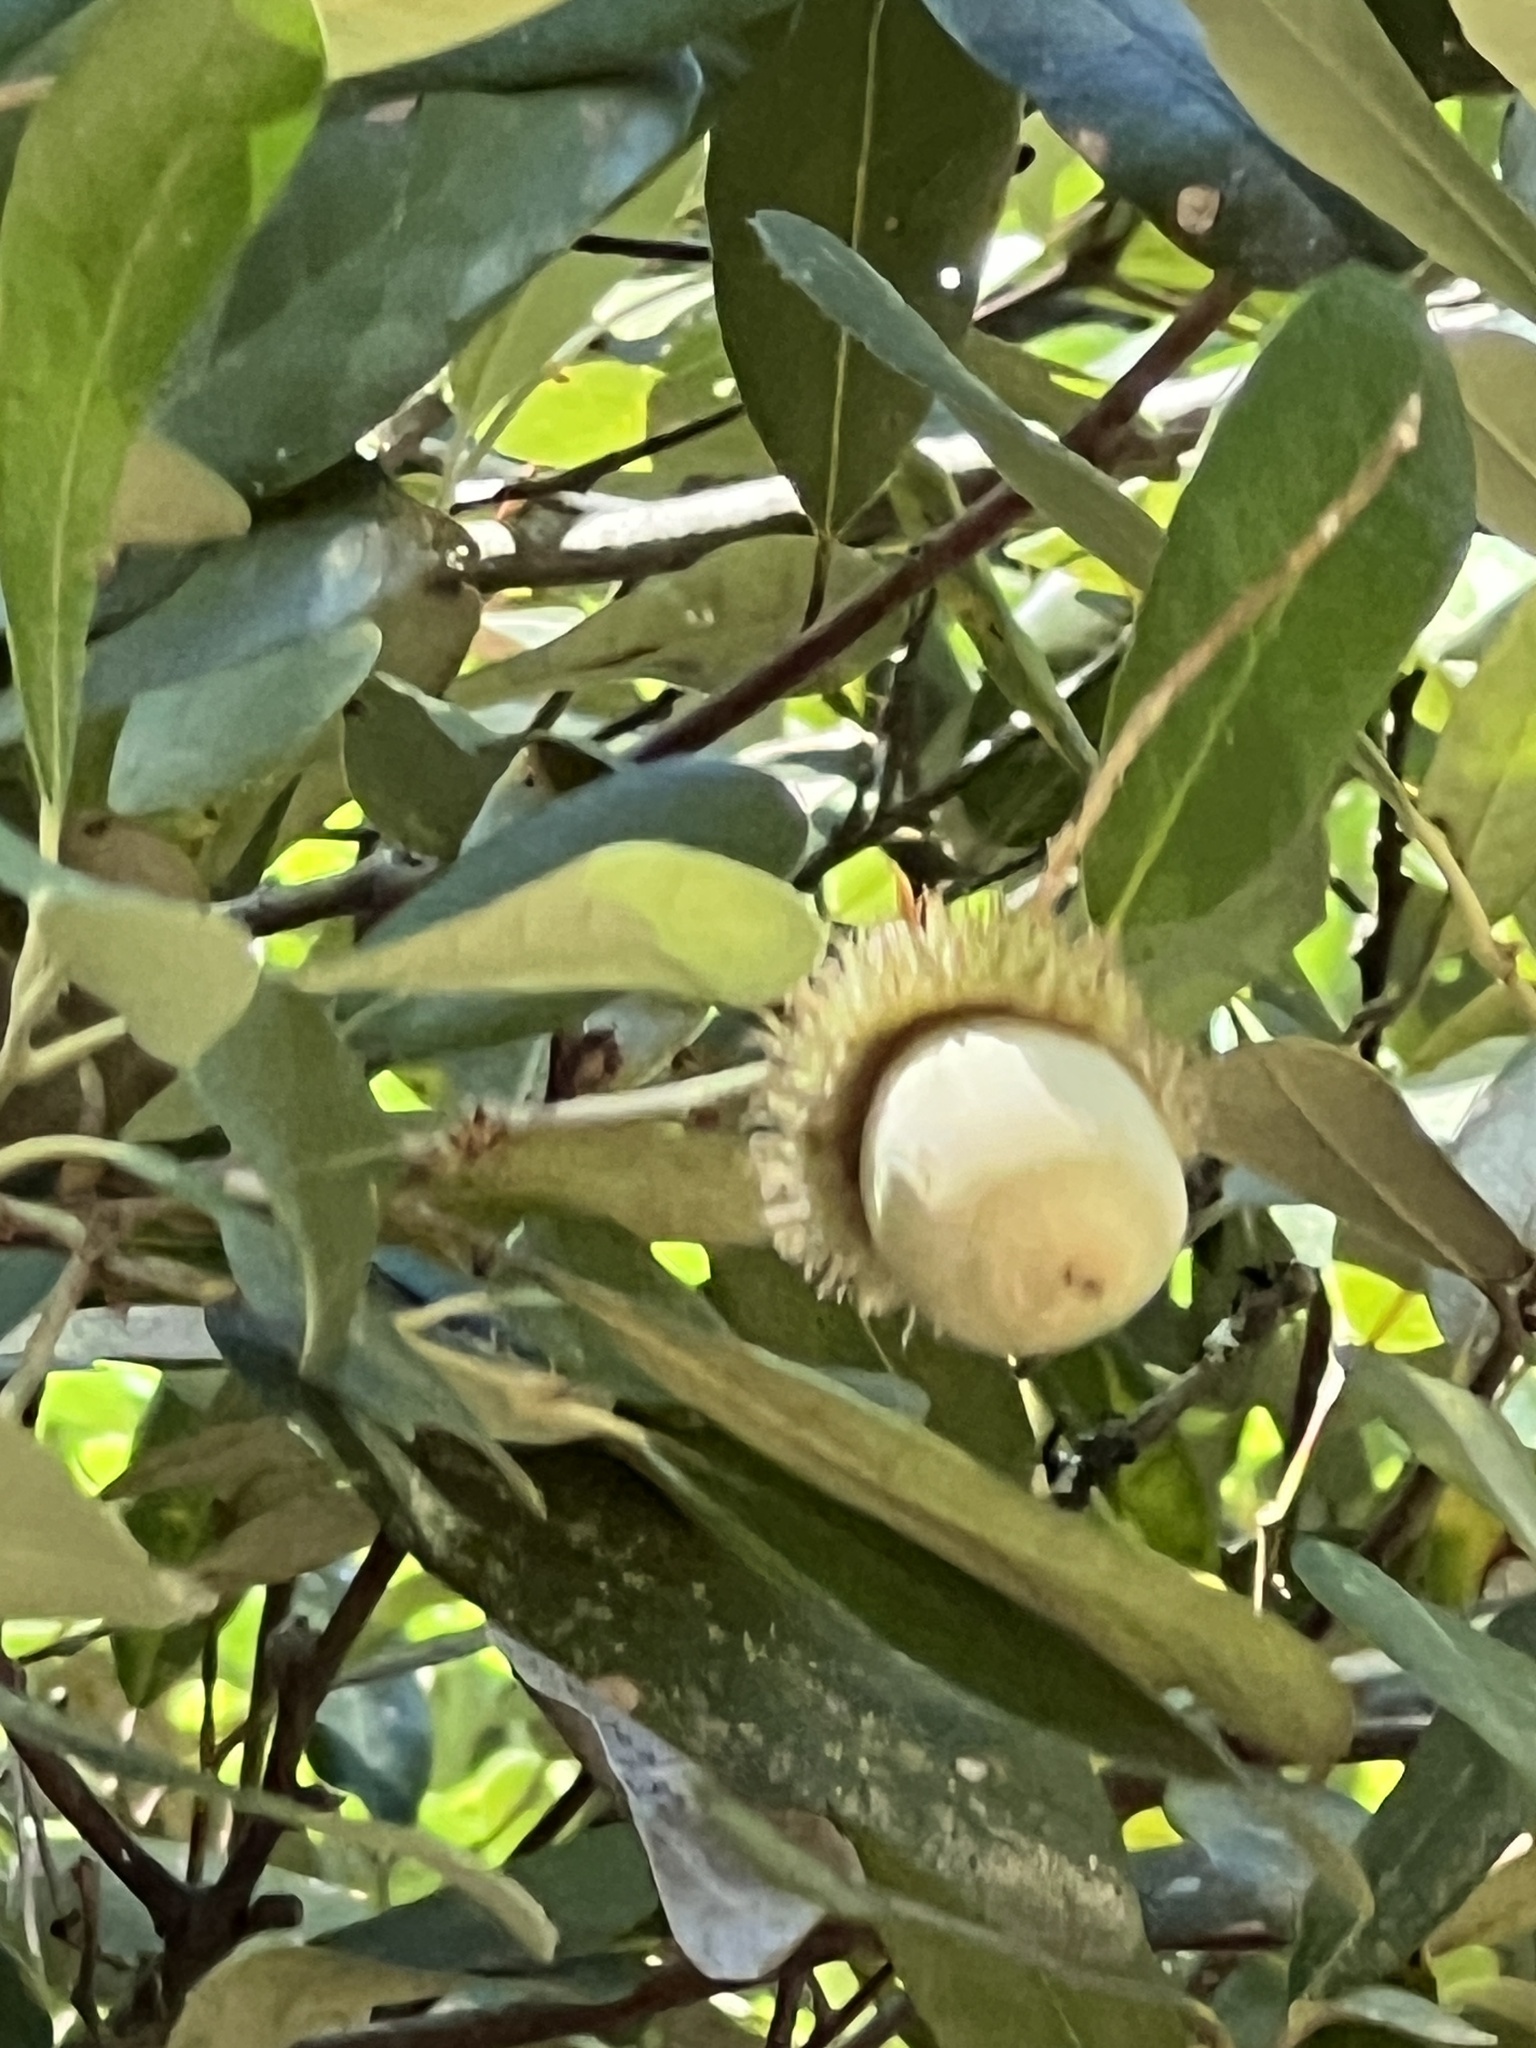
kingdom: Plantae
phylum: Tracheophyta
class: Magnoliopsida
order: Fagales
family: Fagaceae
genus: Notholithocarpus
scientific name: Notholithocarpus densiflorus
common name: Tan bark oak
